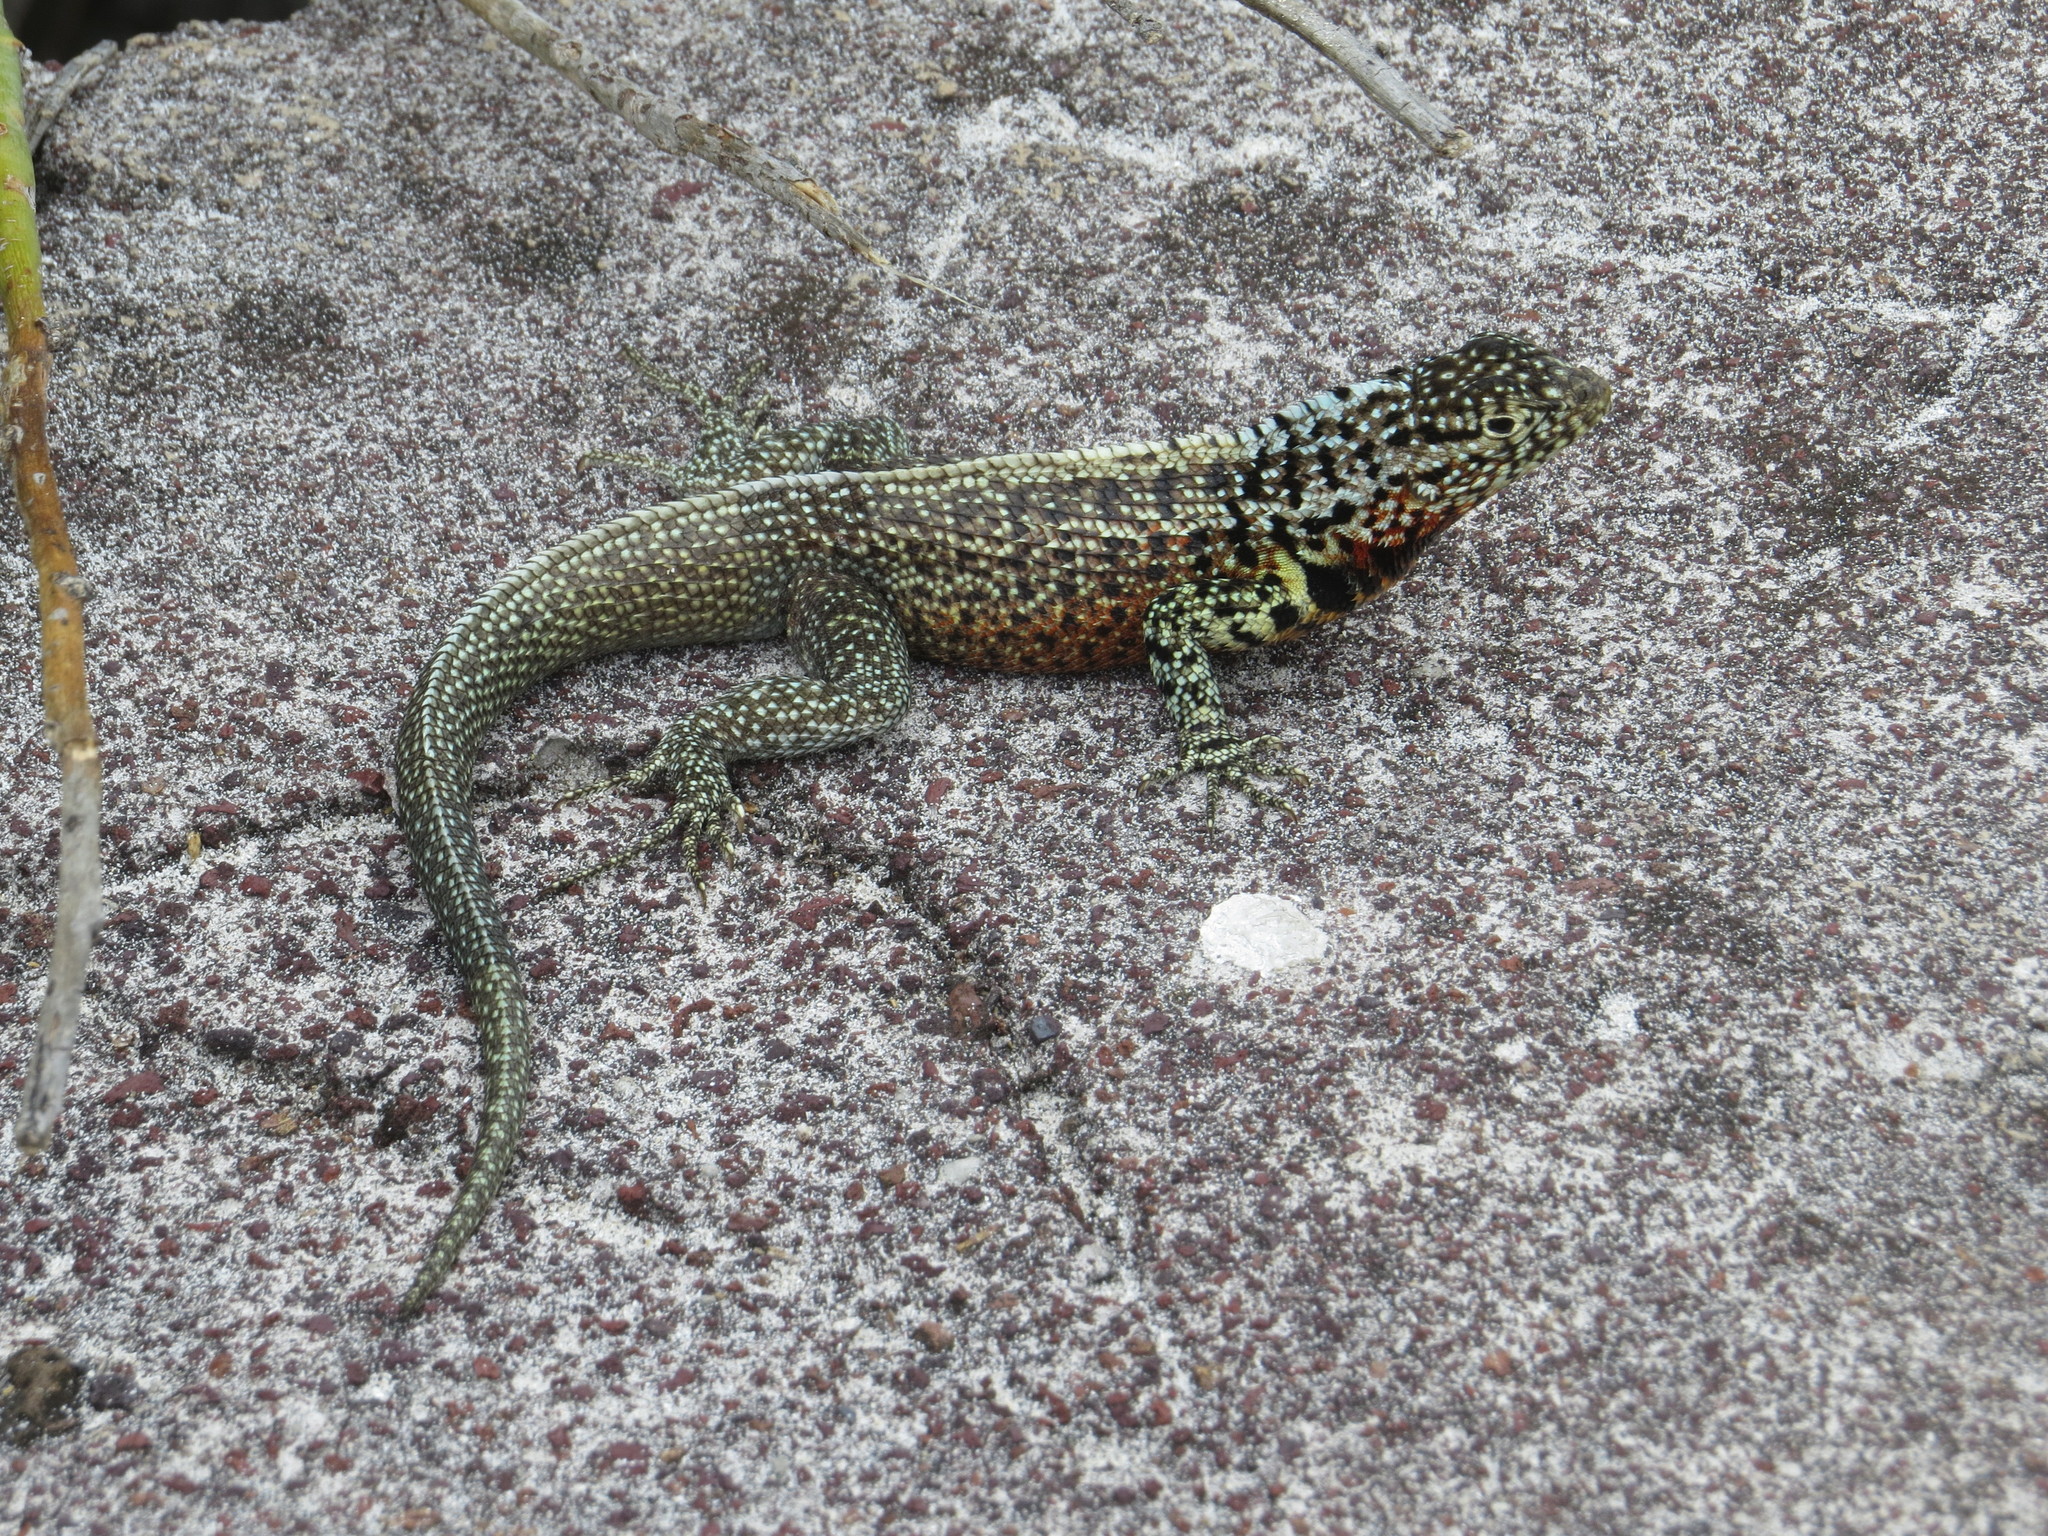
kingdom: Animalia
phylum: Chordata
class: Squamata
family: Tropiduridae
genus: Microlophus
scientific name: Microlophus indefatigabilis
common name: Galapagos lava lizard
